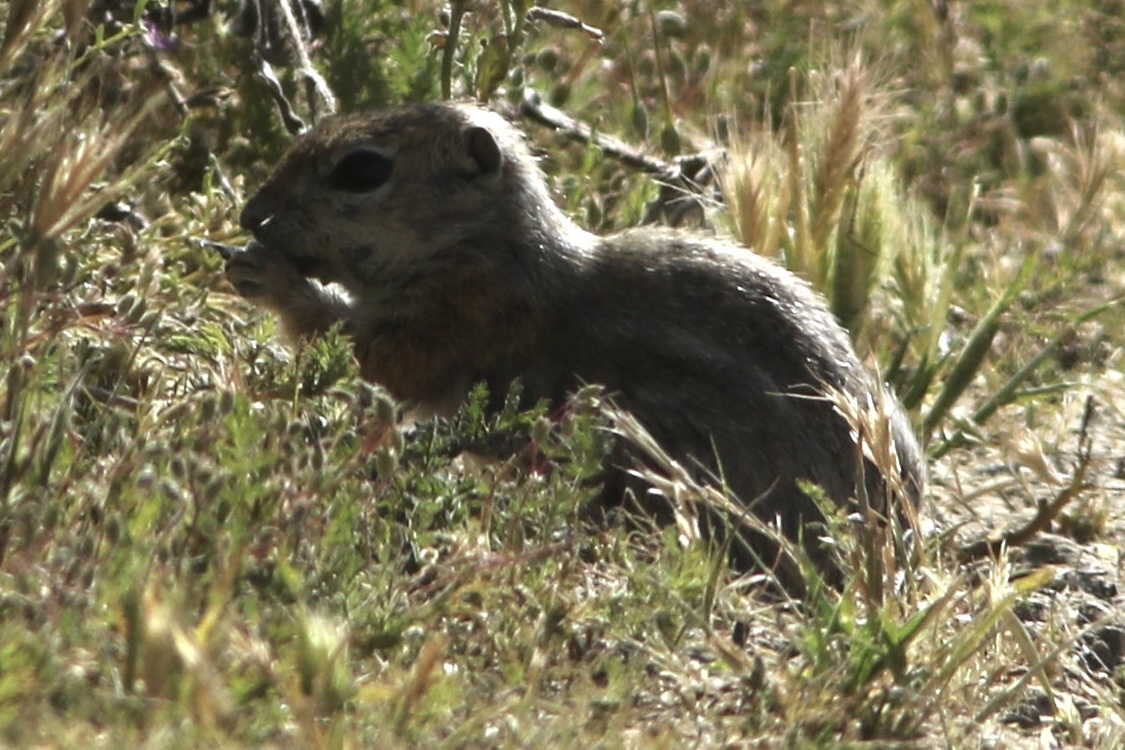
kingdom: Animalia
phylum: Chordata
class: Mammalia
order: Rodentia
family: Sciuridae
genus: Ammospermophilus
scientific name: Ammospermophilus nelsoni
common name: Nelson's antelope squirrel
